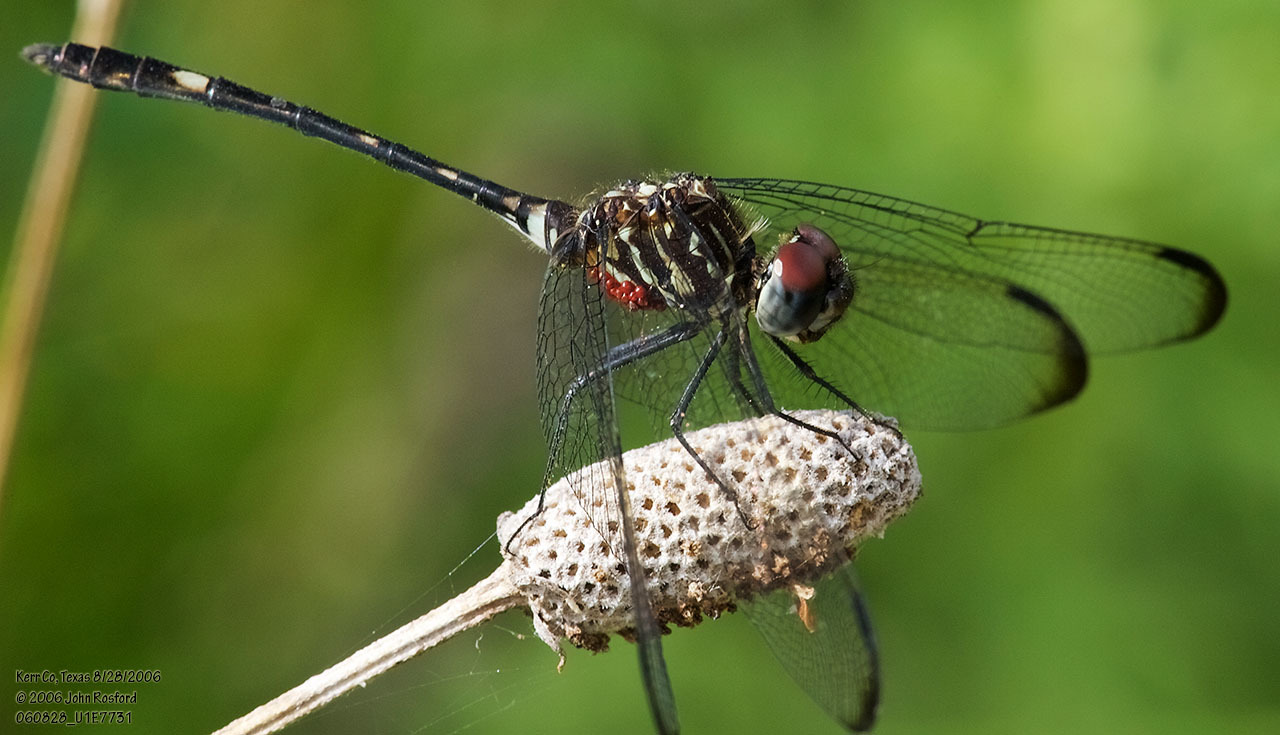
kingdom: Animalia
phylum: Arthropoda
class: Insecta
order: Odonata
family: Libellulidae
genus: Dythemis
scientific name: Dythemis velox
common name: Swift setwing
